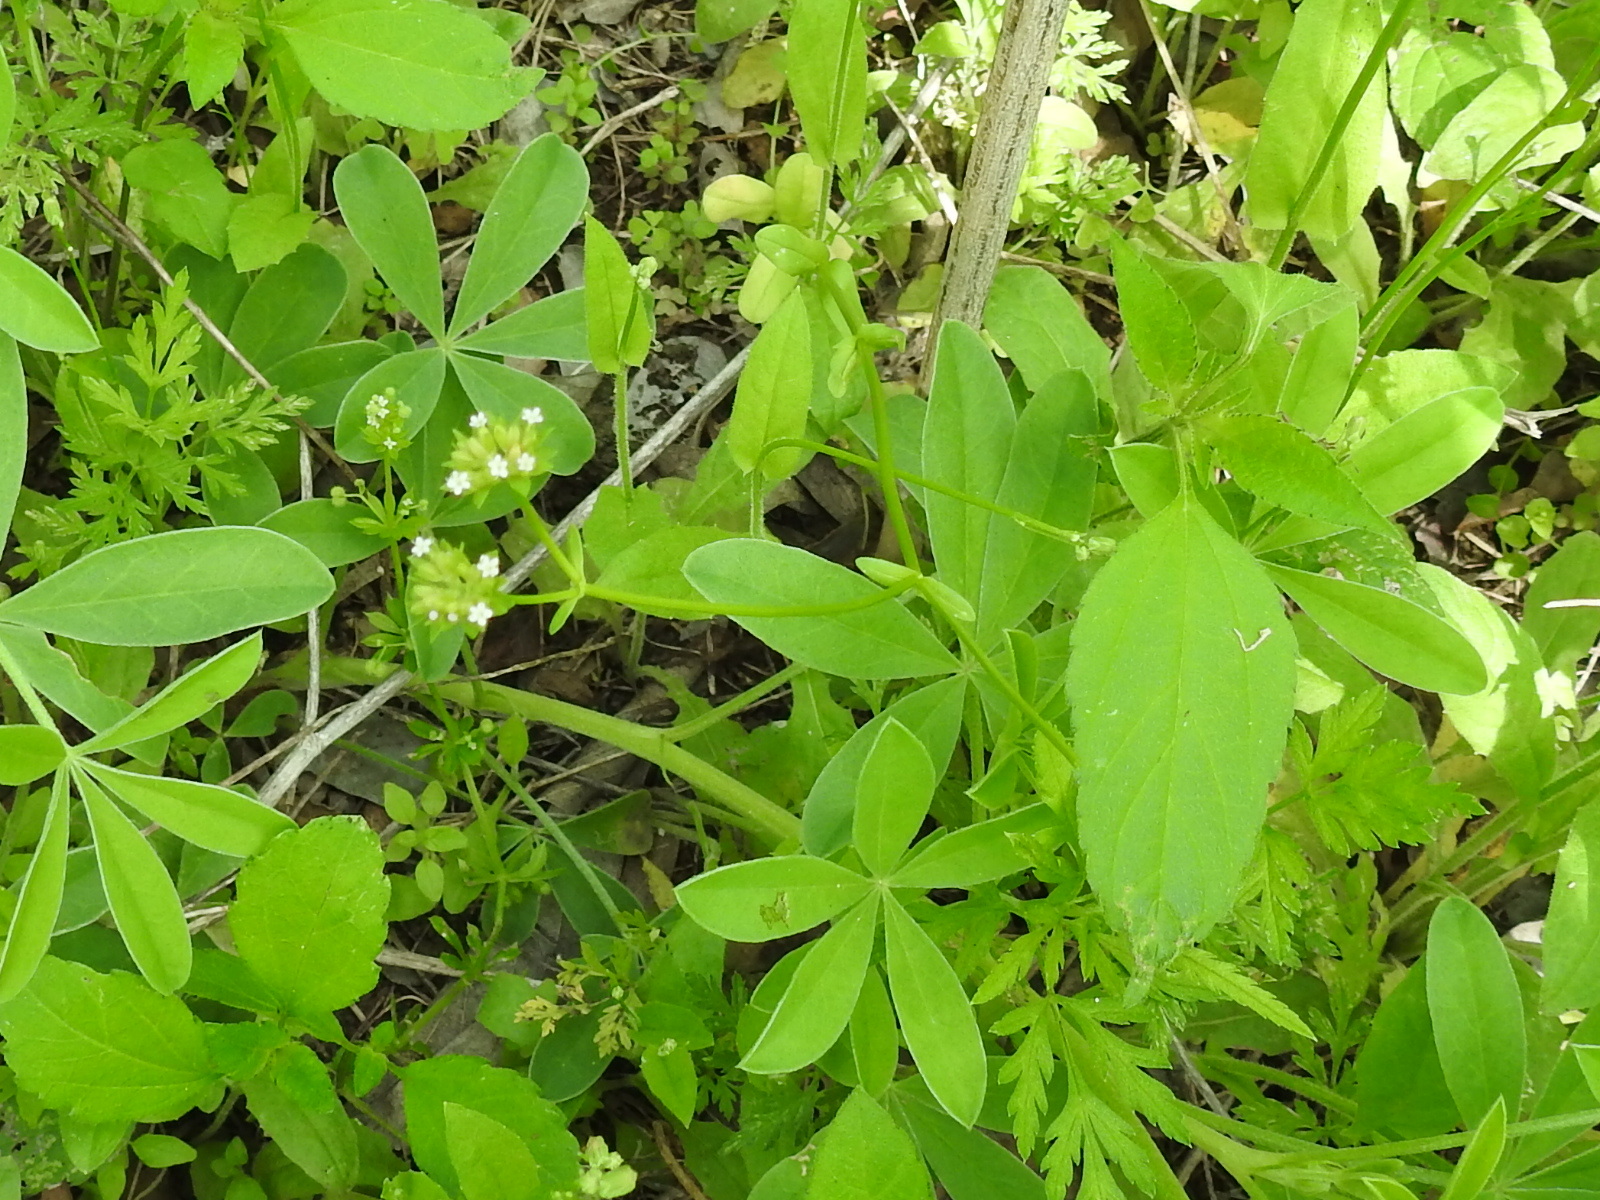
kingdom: Plantae
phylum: Tracheophyta
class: Magnoliopsida
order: Dipsacales
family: Caprifoliaceae
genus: Valerianella
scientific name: Valerianella radiata
